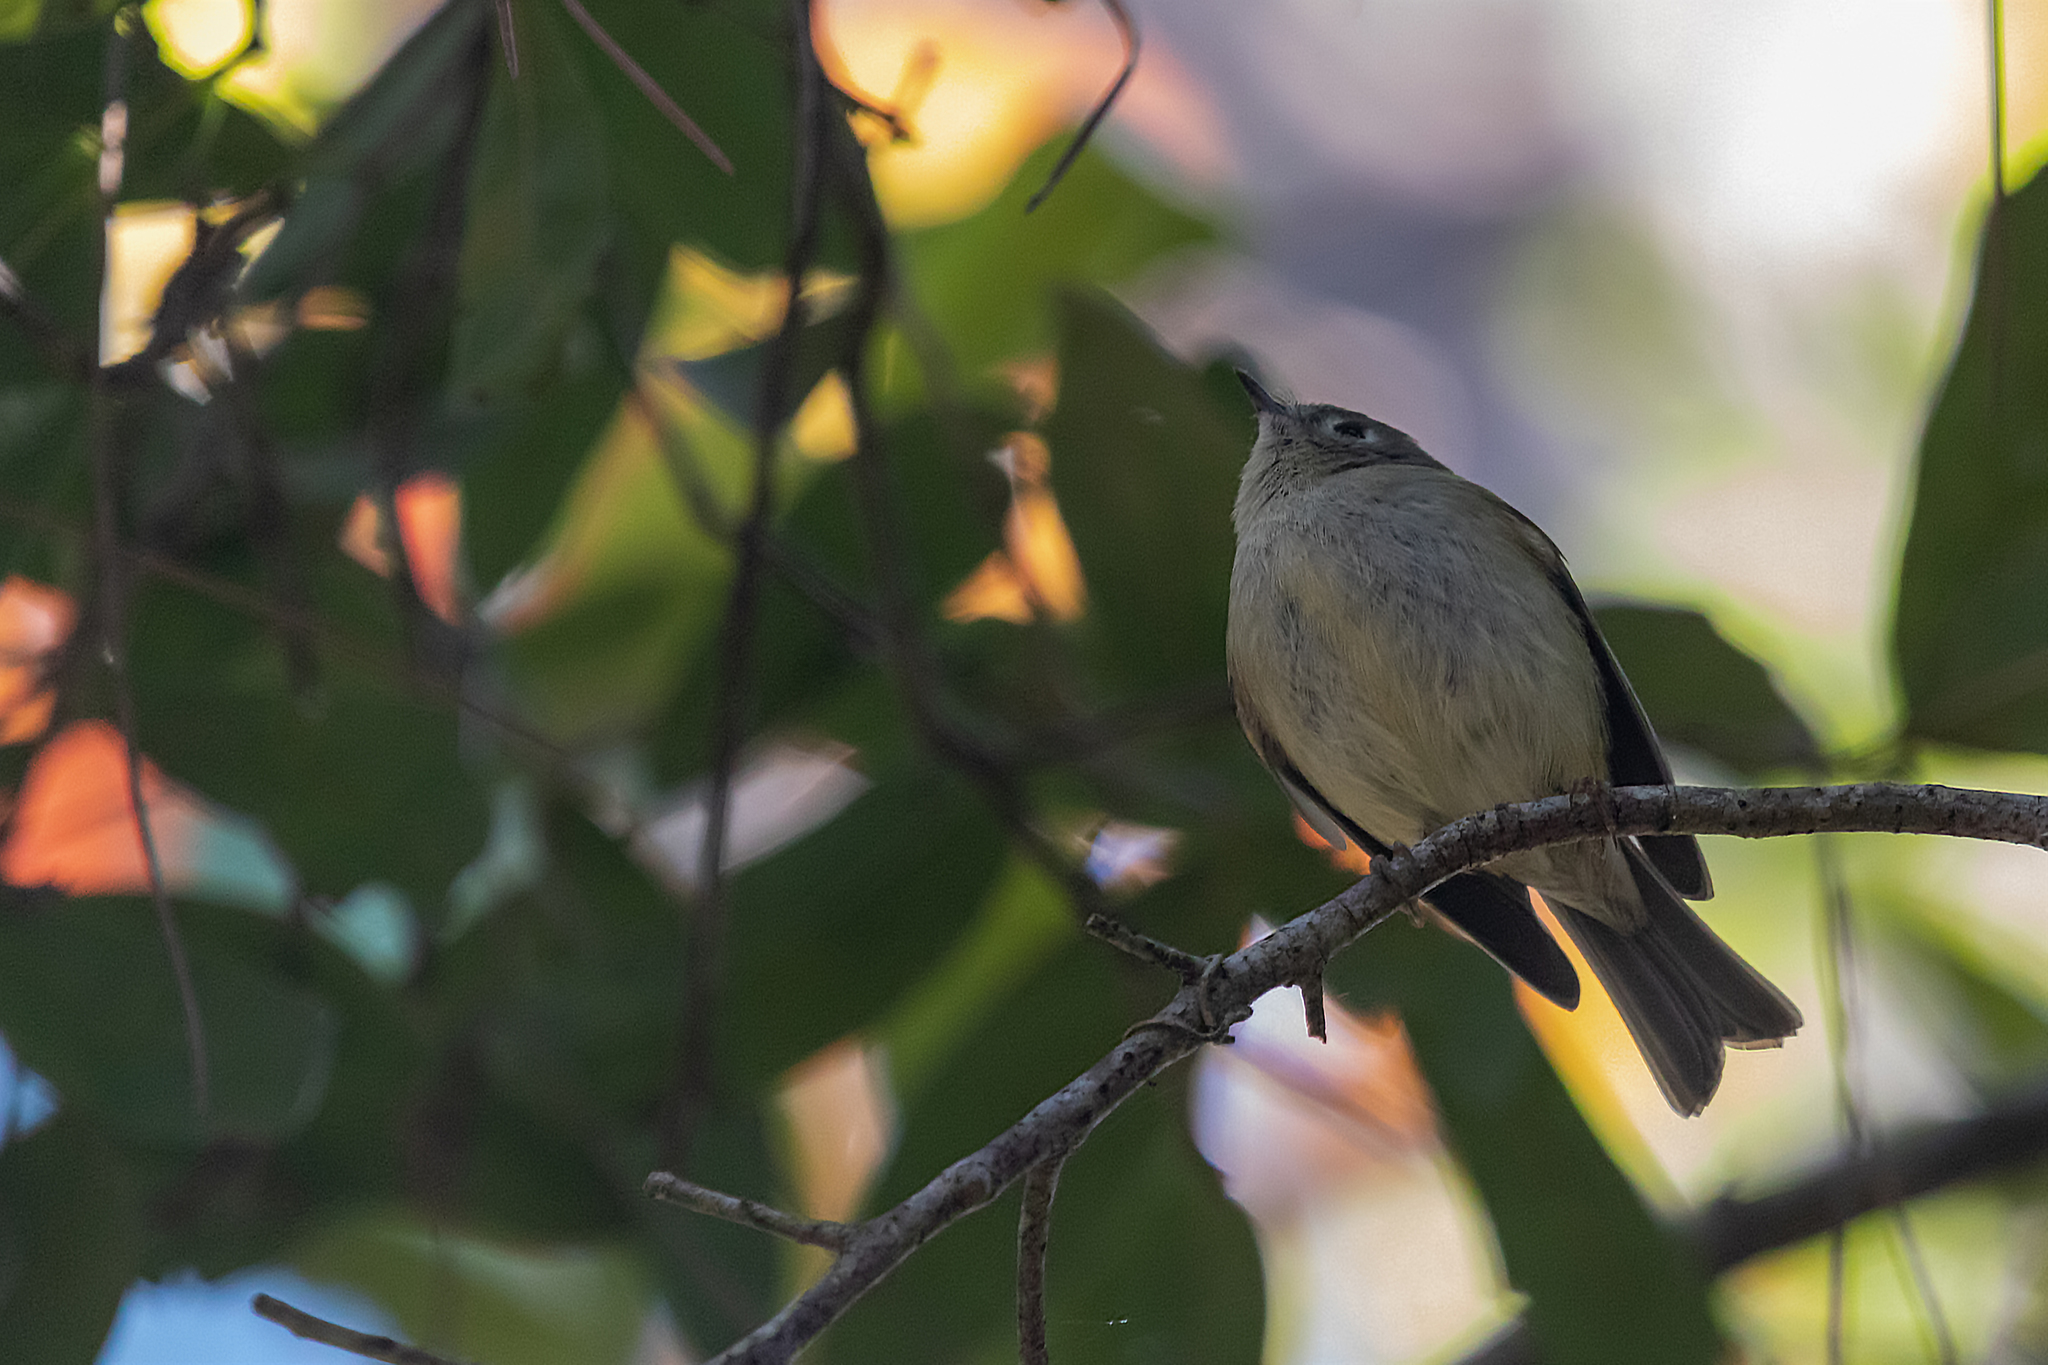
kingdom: Animalia
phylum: Chordata
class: Aves
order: Passeriformes
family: Regulidae
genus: Regulus
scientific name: Regulus calendula
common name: Ruby-crowned kinglet
